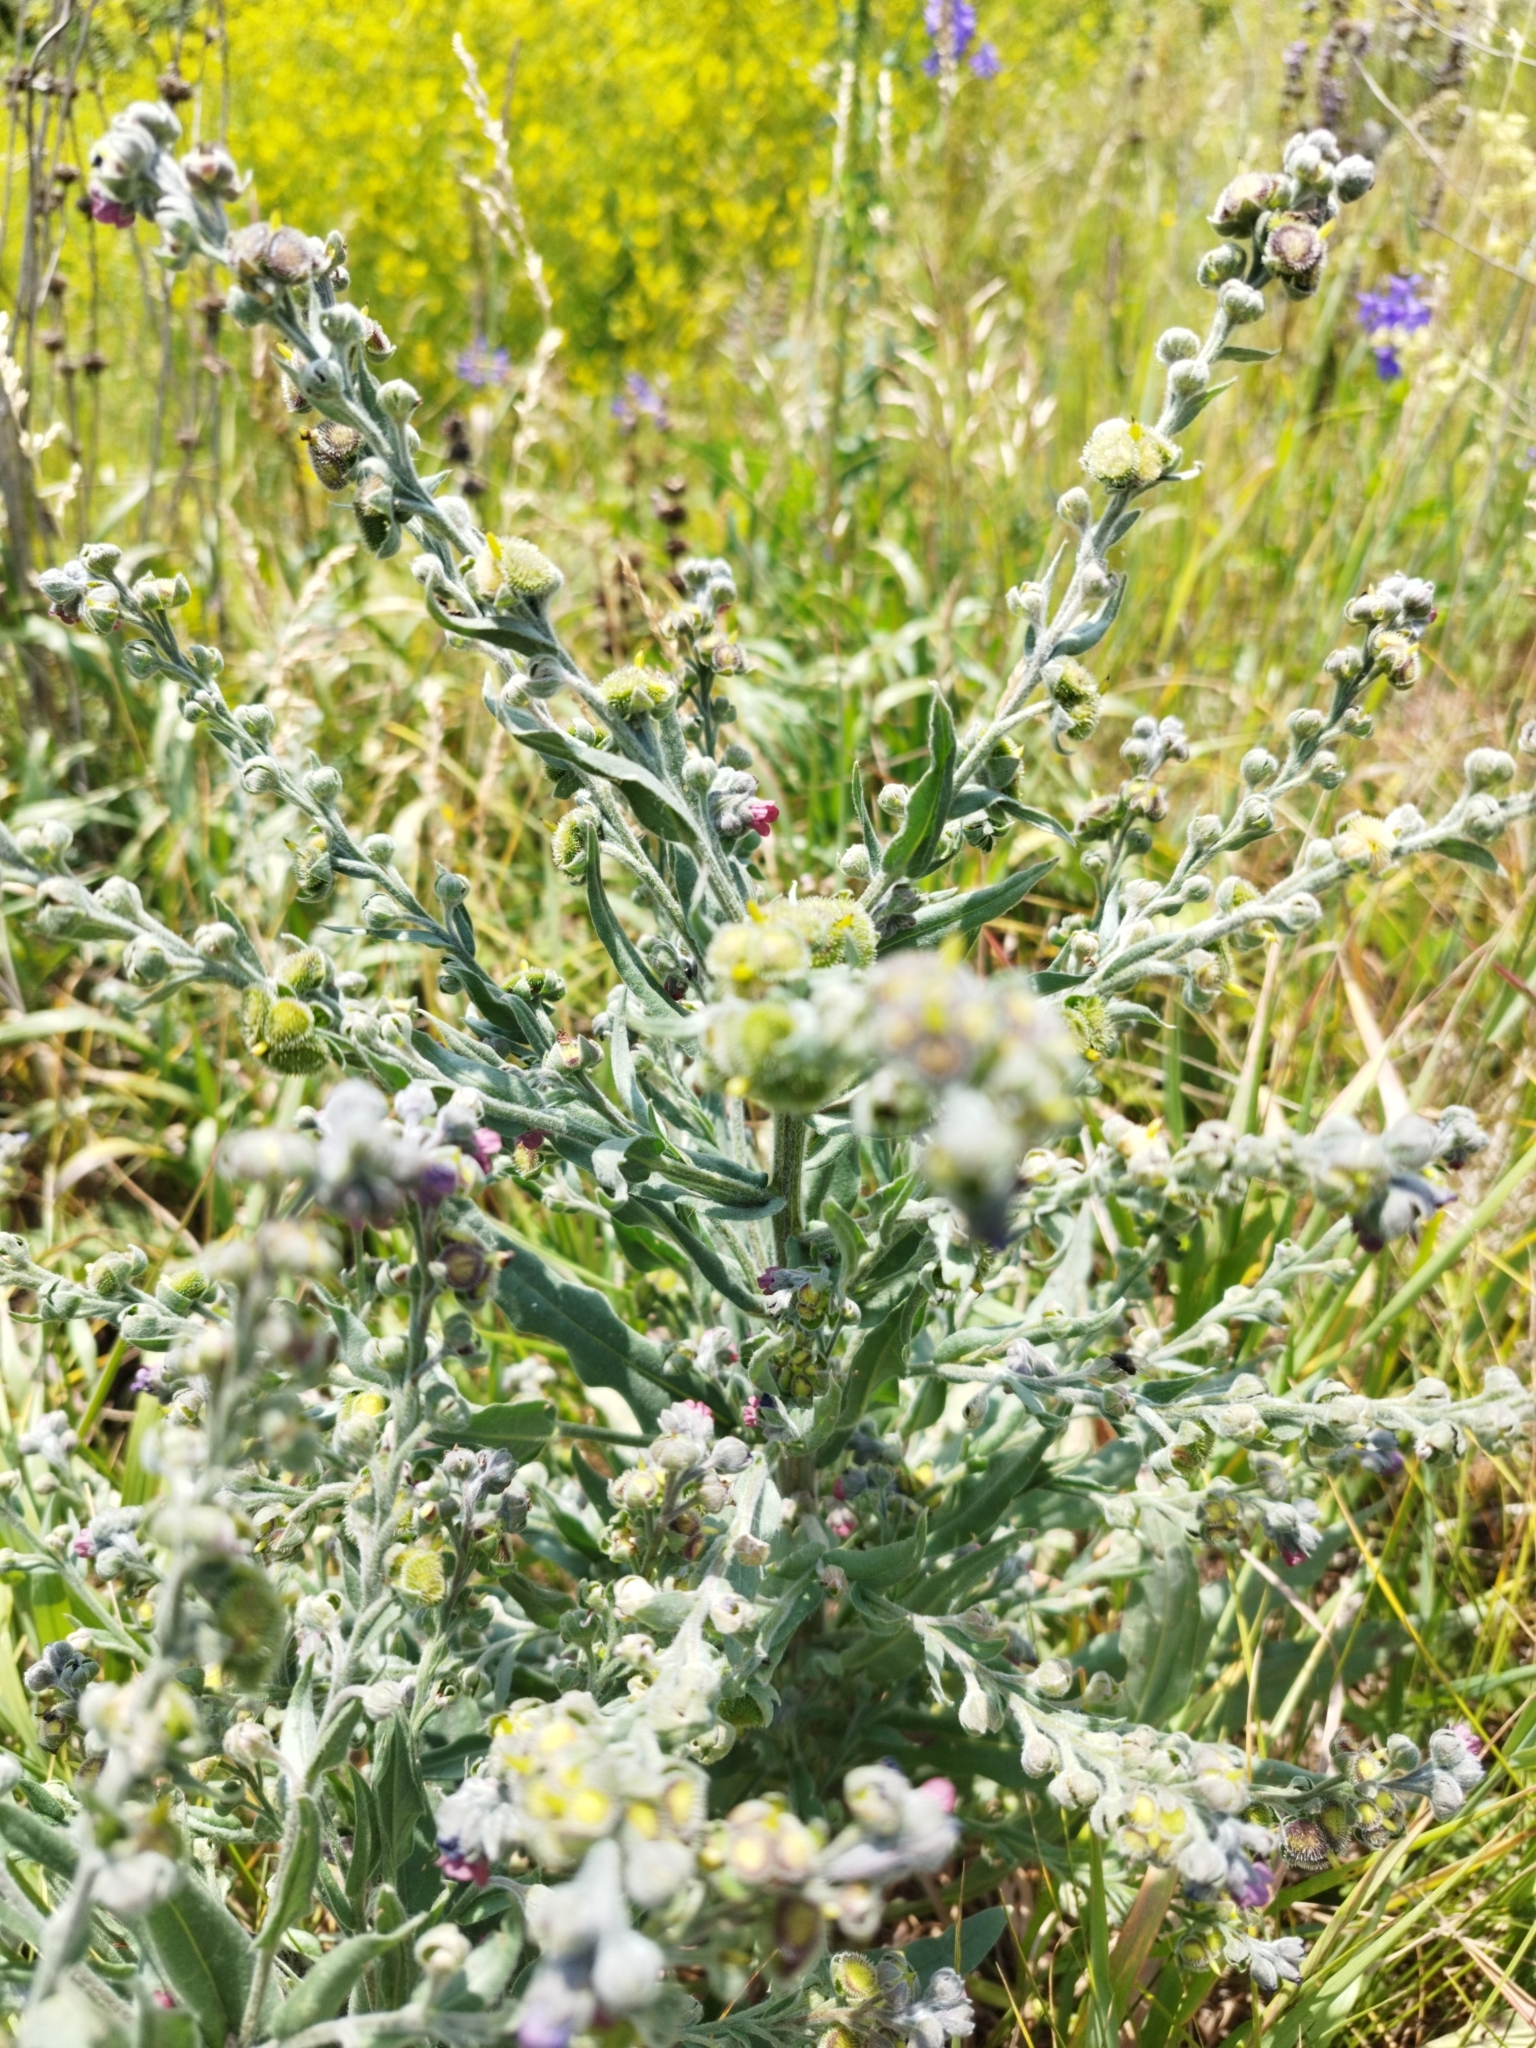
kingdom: Plantae
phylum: Tracheophyta
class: Magnoliopsida
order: Boraginales
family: Boraginaceae
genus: Cynoglossum
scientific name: Cynoglossum officinale
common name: Hound's-tongue
